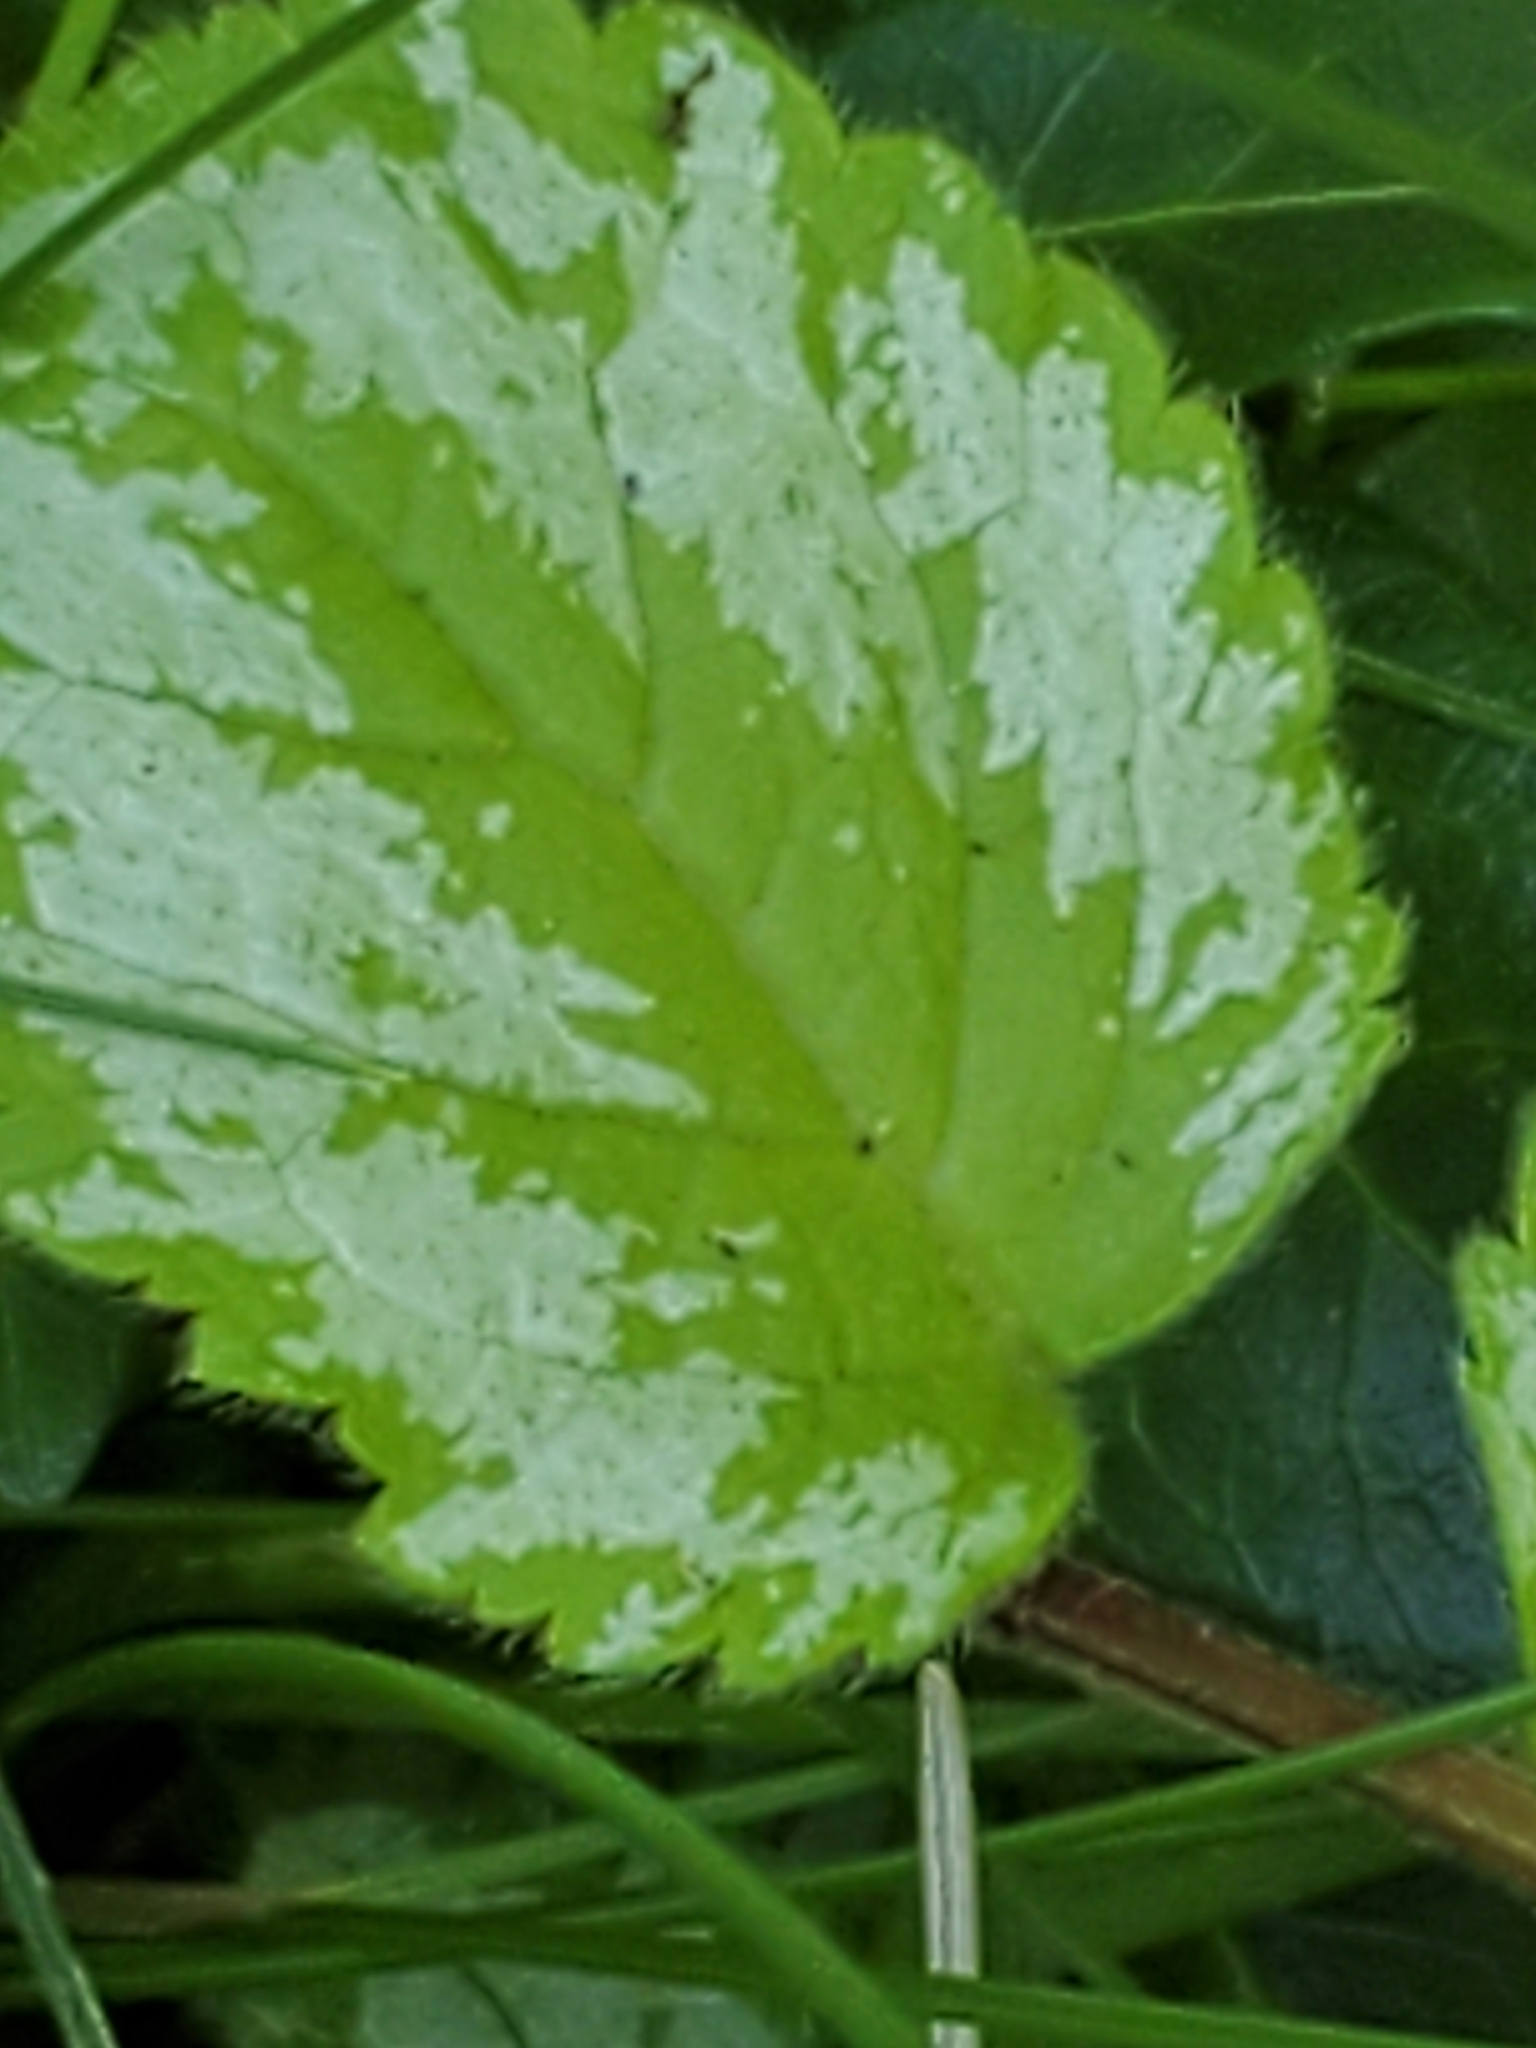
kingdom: Plantae
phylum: Tracheophyta
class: Magnoliopsida
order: Lamiales
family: Lamiaceae
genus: Lamium
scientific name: Lamium galeobdolon
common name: Yellow archangel
